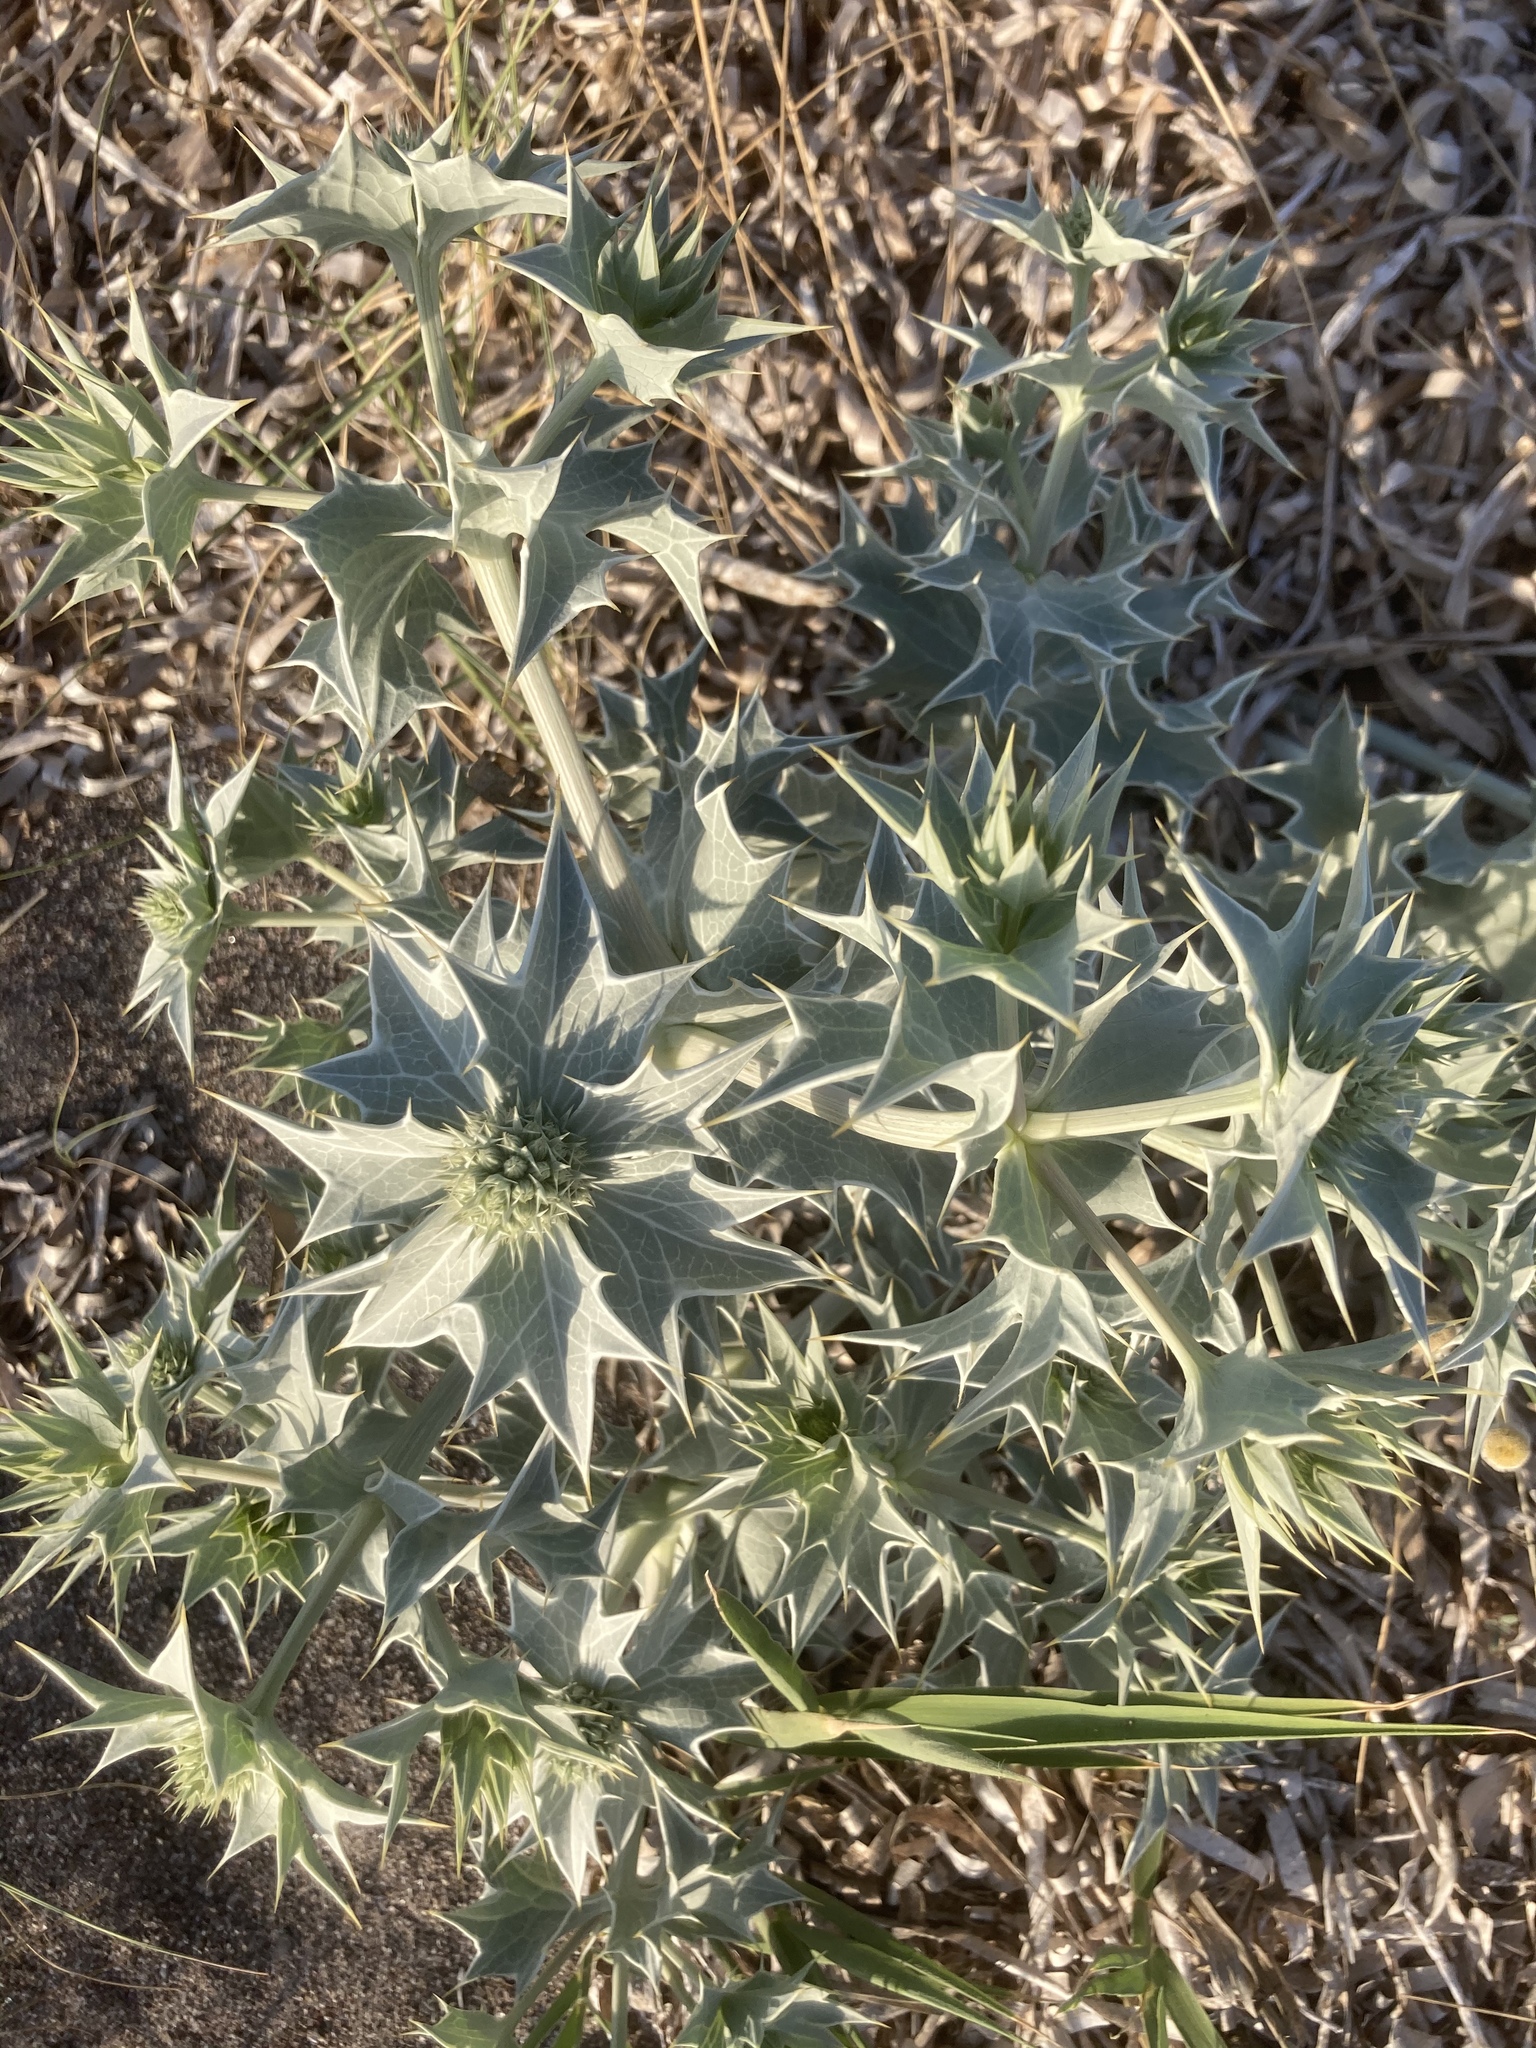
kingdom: Plantae
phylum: Tracheophyta
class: Magnoliopsida
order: Apiales
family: Apiaceae
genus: Eryngium
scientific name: Eryngium maritimum
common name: Sea-holly
